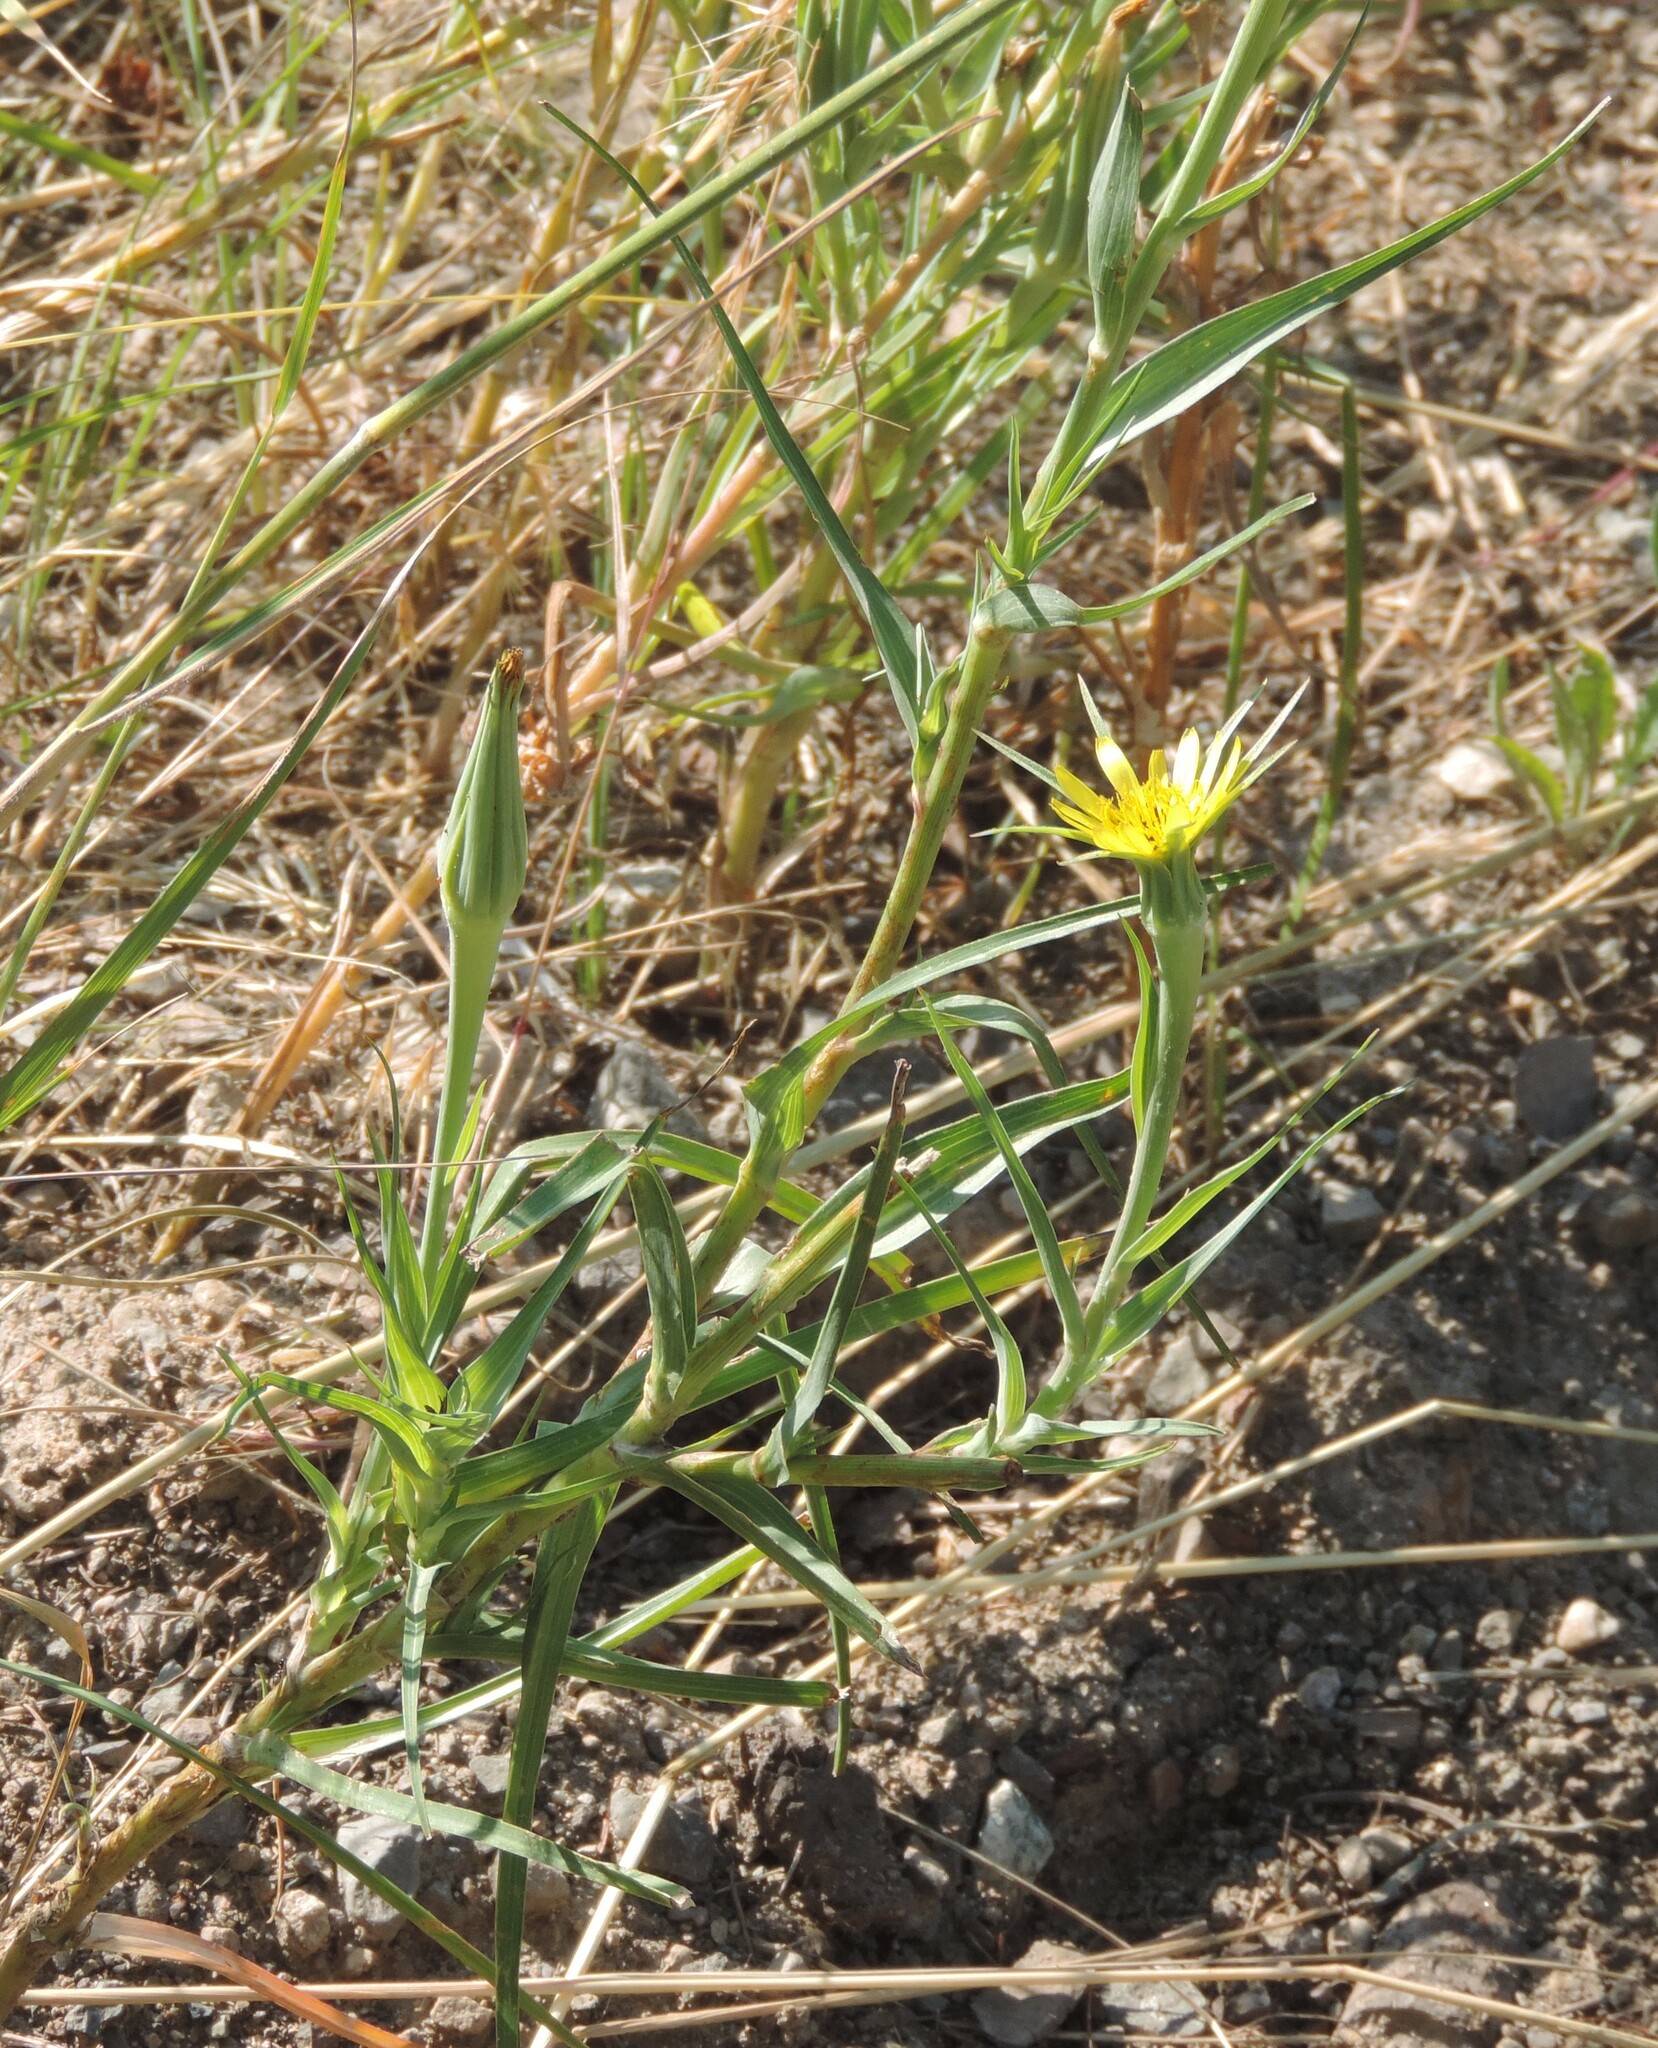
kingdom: Plantae
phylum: Tracheophyta
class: Magnoliopsida
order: Asterales
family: Asteraceae
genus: Tragopogon
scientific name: Tragopogon dubius
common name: Yellow salsify
